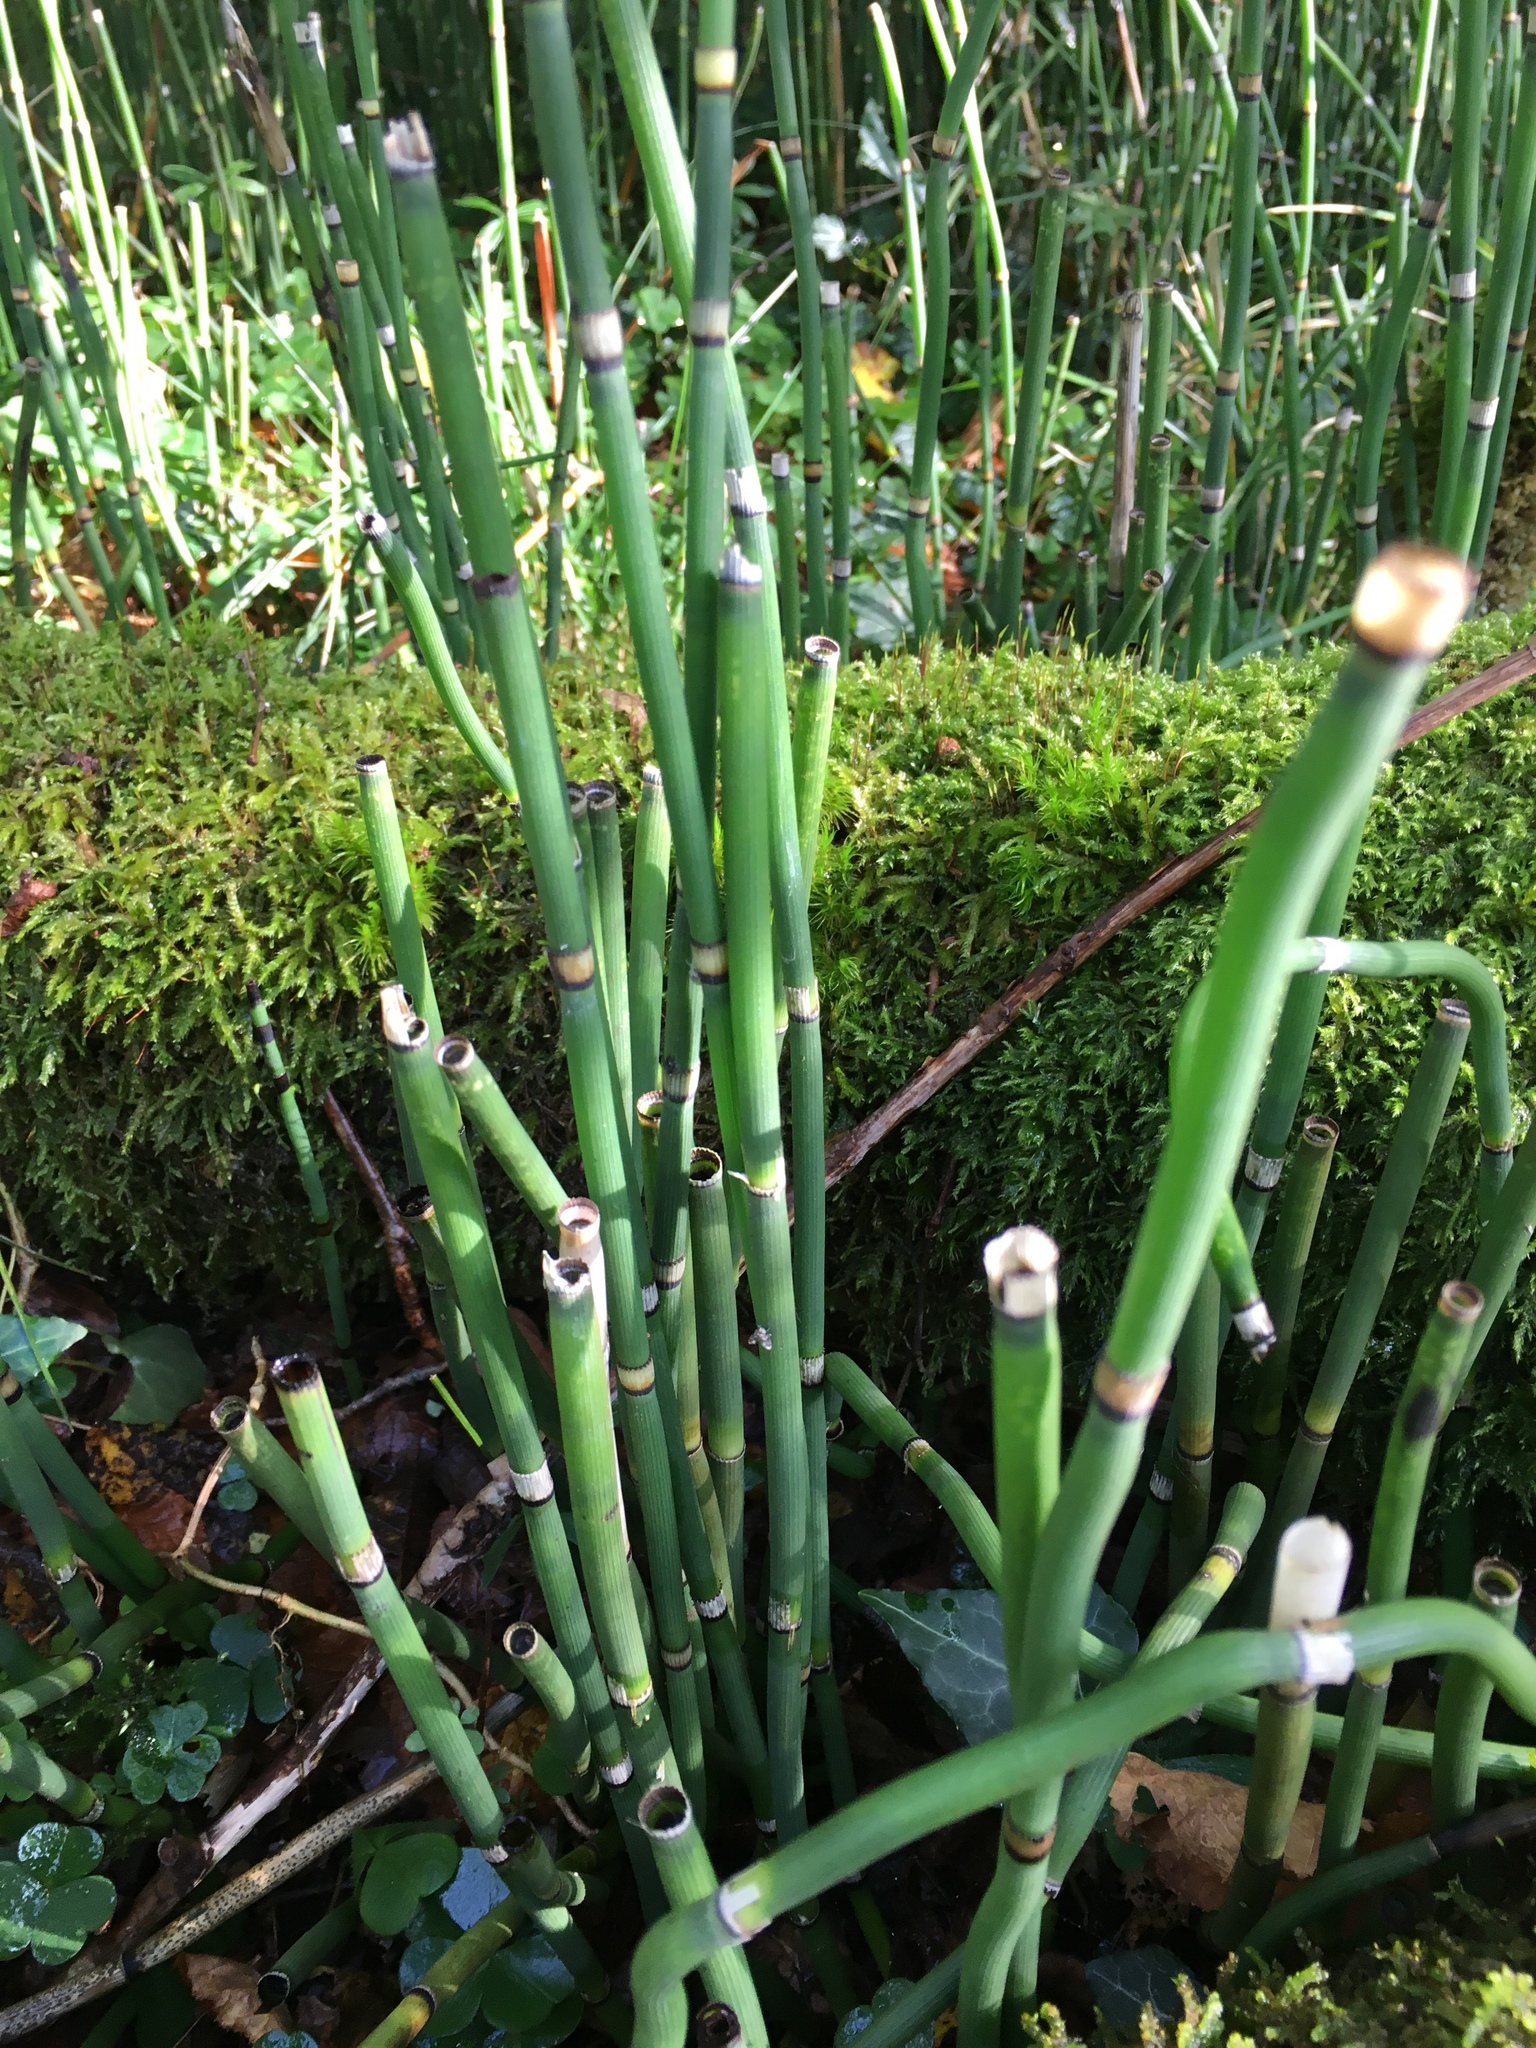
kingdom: Plantae
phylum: Tracheophyta
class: Polypodiopsida
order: Equisetales
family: Equisetaceae
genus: Equisetum
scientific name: Equisetum hyemale
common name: Rough horsetail
